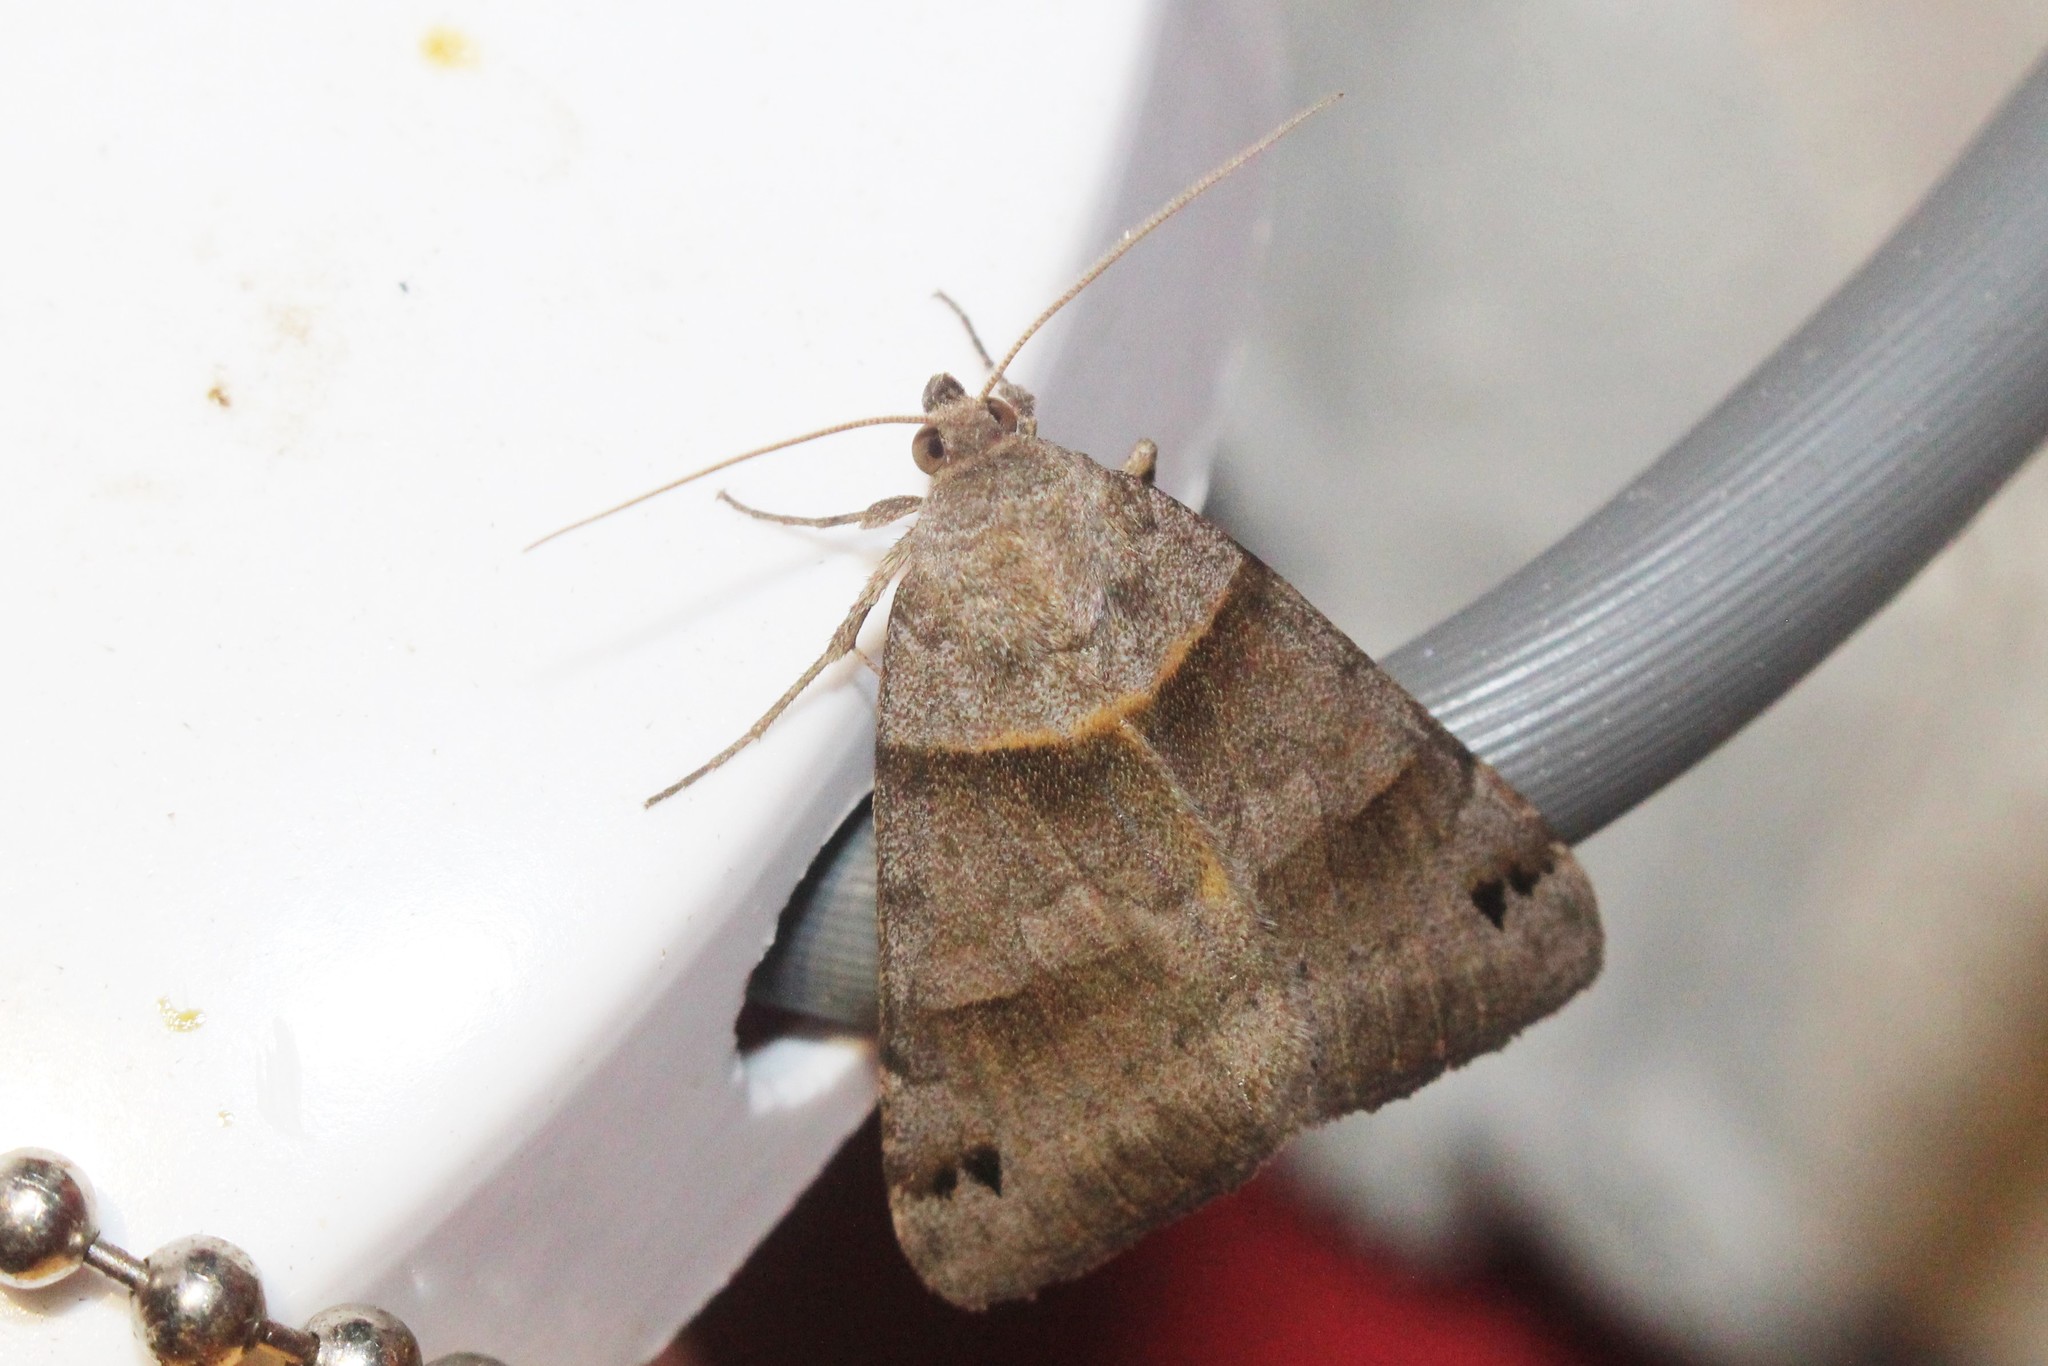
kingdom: Animalia
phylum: Arthropoda
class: Insecta
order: Lepidoptera
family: Erebidae
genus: Caenurgina
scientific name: Caenurgina crassiuscula
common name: Double-barred
